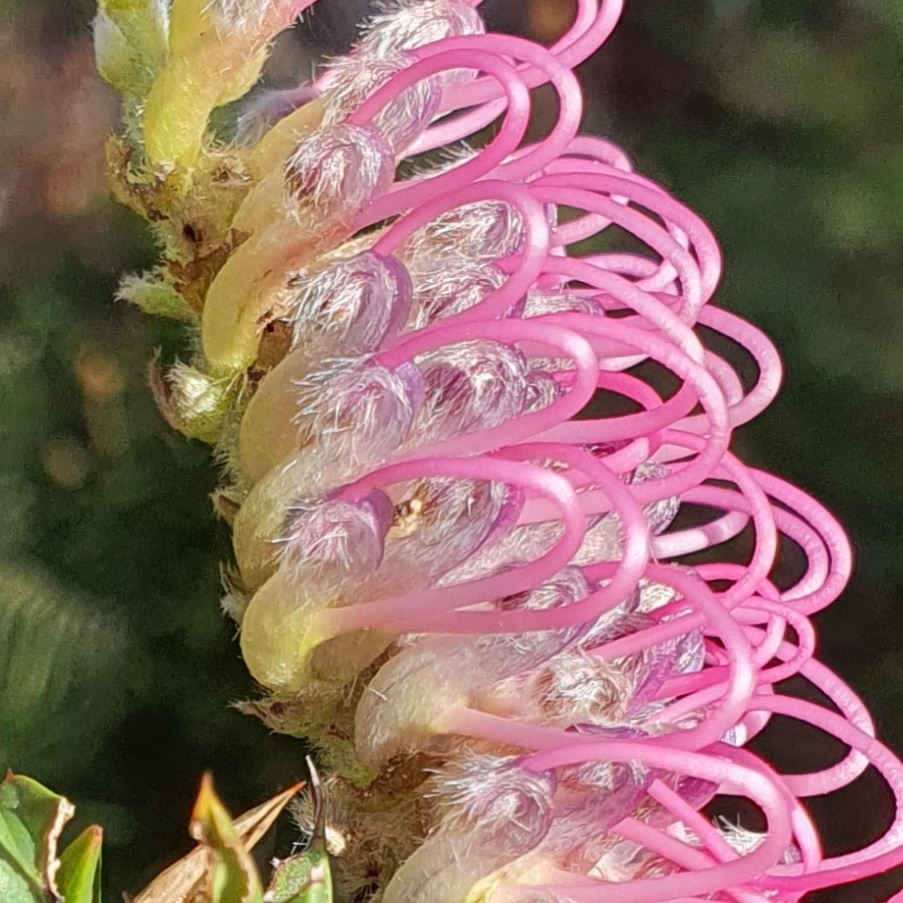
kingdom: Plantae
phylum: Tracheophyta
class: Magnoliopsida
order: Proteales
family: Proteaceae
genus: Grevillea
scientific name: Grevillea acanthifolia
